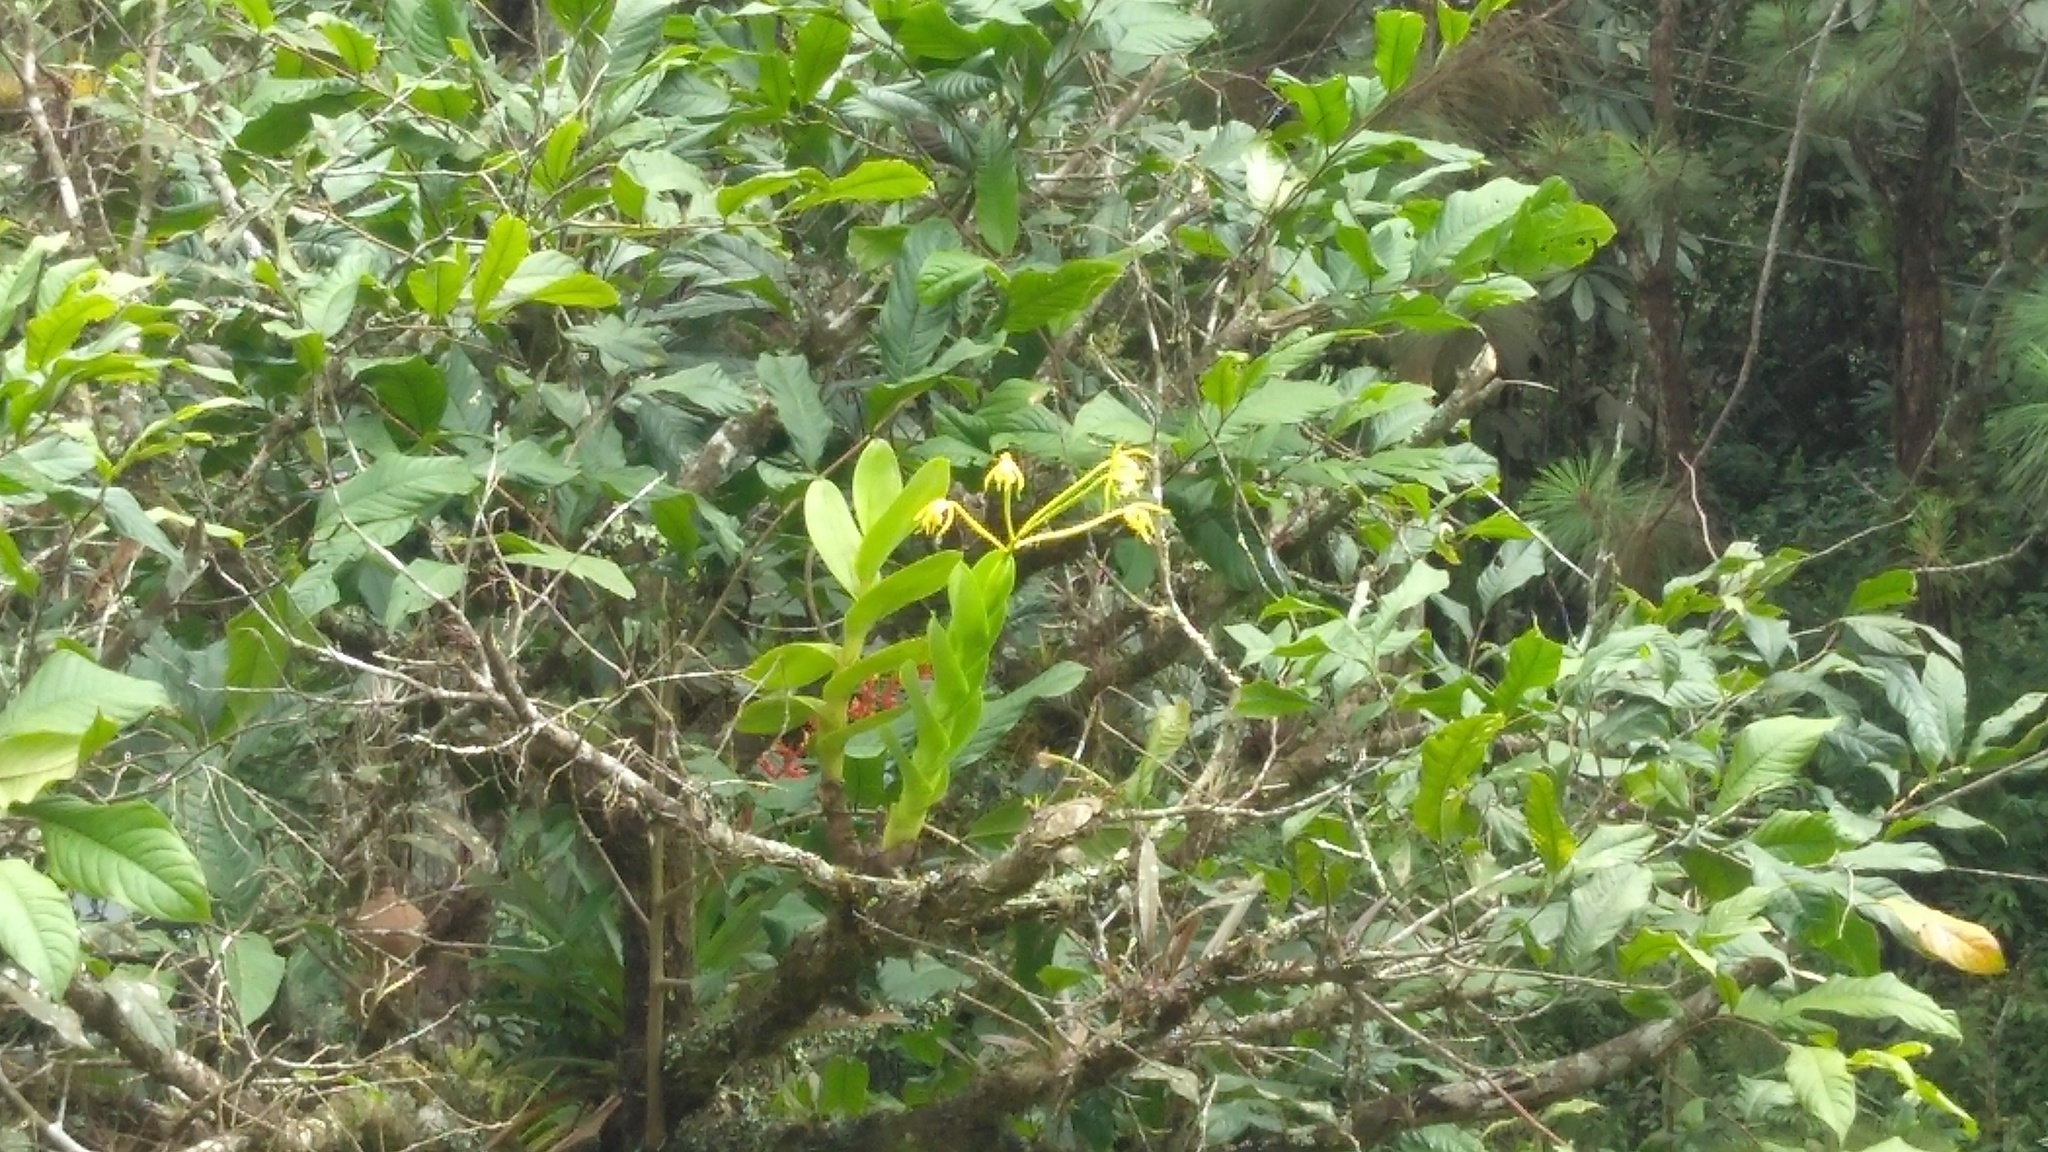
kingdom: Plantae
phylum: Tracheophyta
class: Liliopsida
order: Asparagales
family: Orchidaceae
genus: Epidendrum
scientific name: Epidendrum
